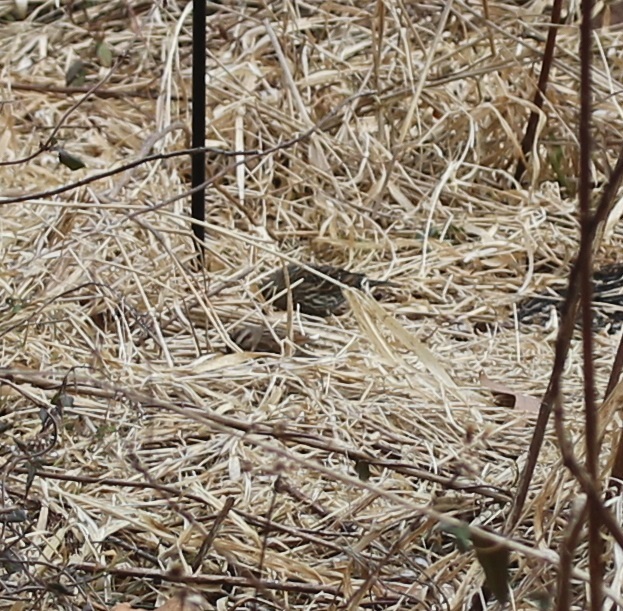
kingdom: Animalia
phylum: Chordata
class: Aves
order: Passeriformes
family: Passerellidae
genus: Melospiza
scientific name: Melospiza melodia
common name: Song sparrow
